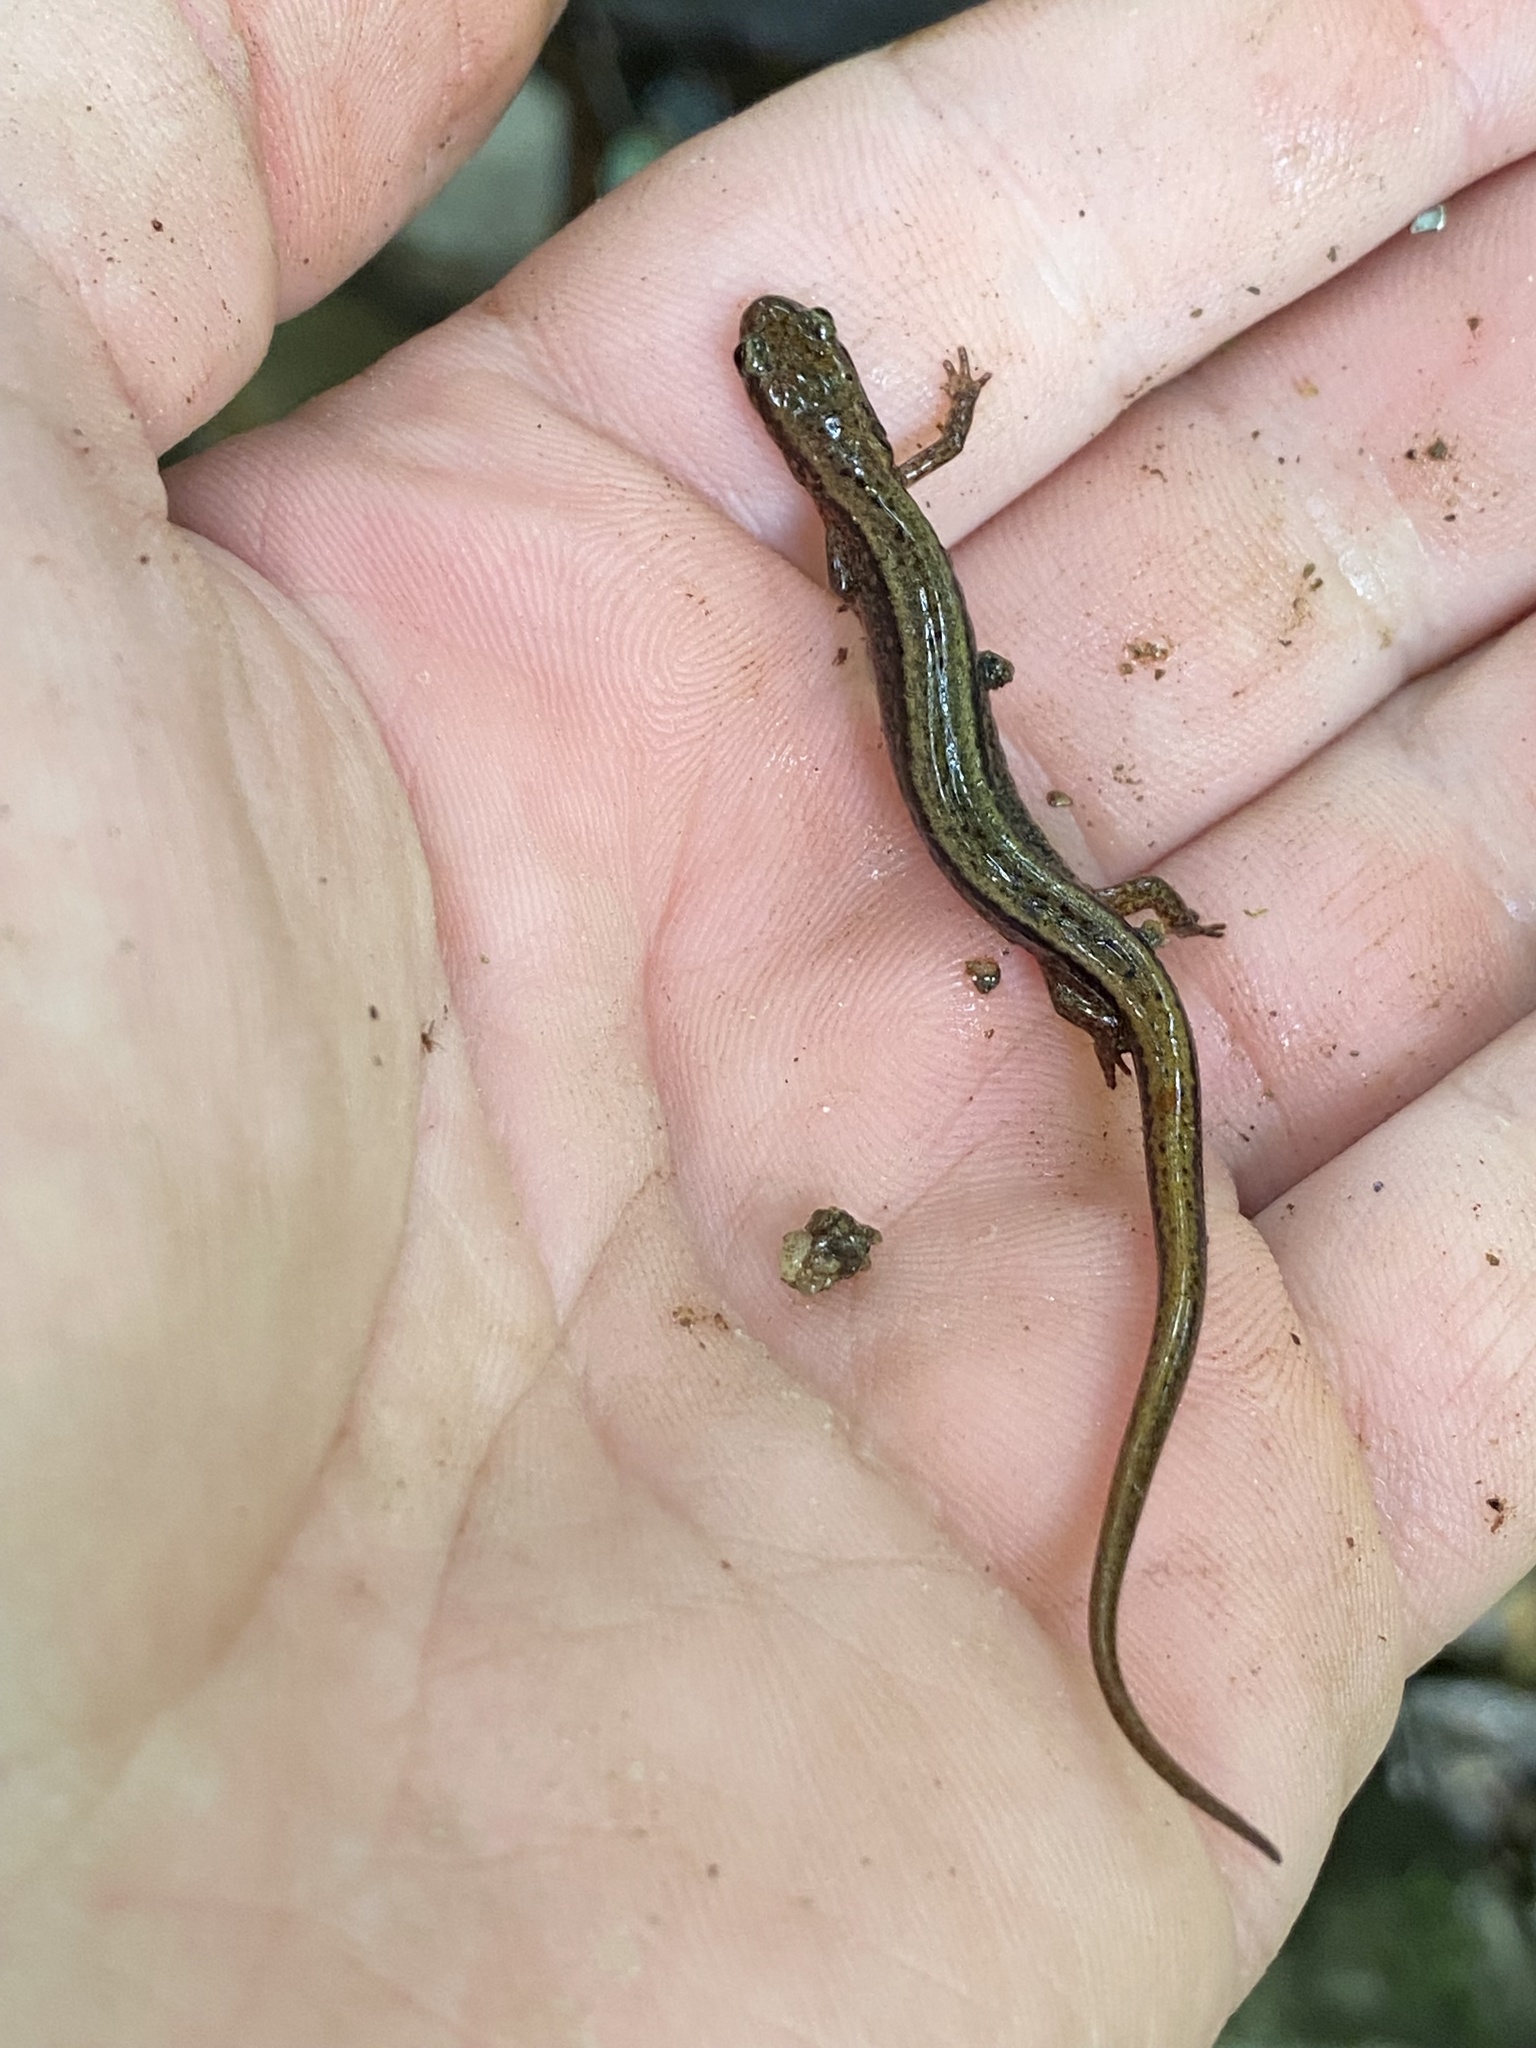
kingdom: Animalia
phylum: Chordata
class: Amphibia
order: Caudata
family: Plethodontidae
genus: Eurycea
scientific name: Eurycea bislineata
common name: Northern two-lined salamander
